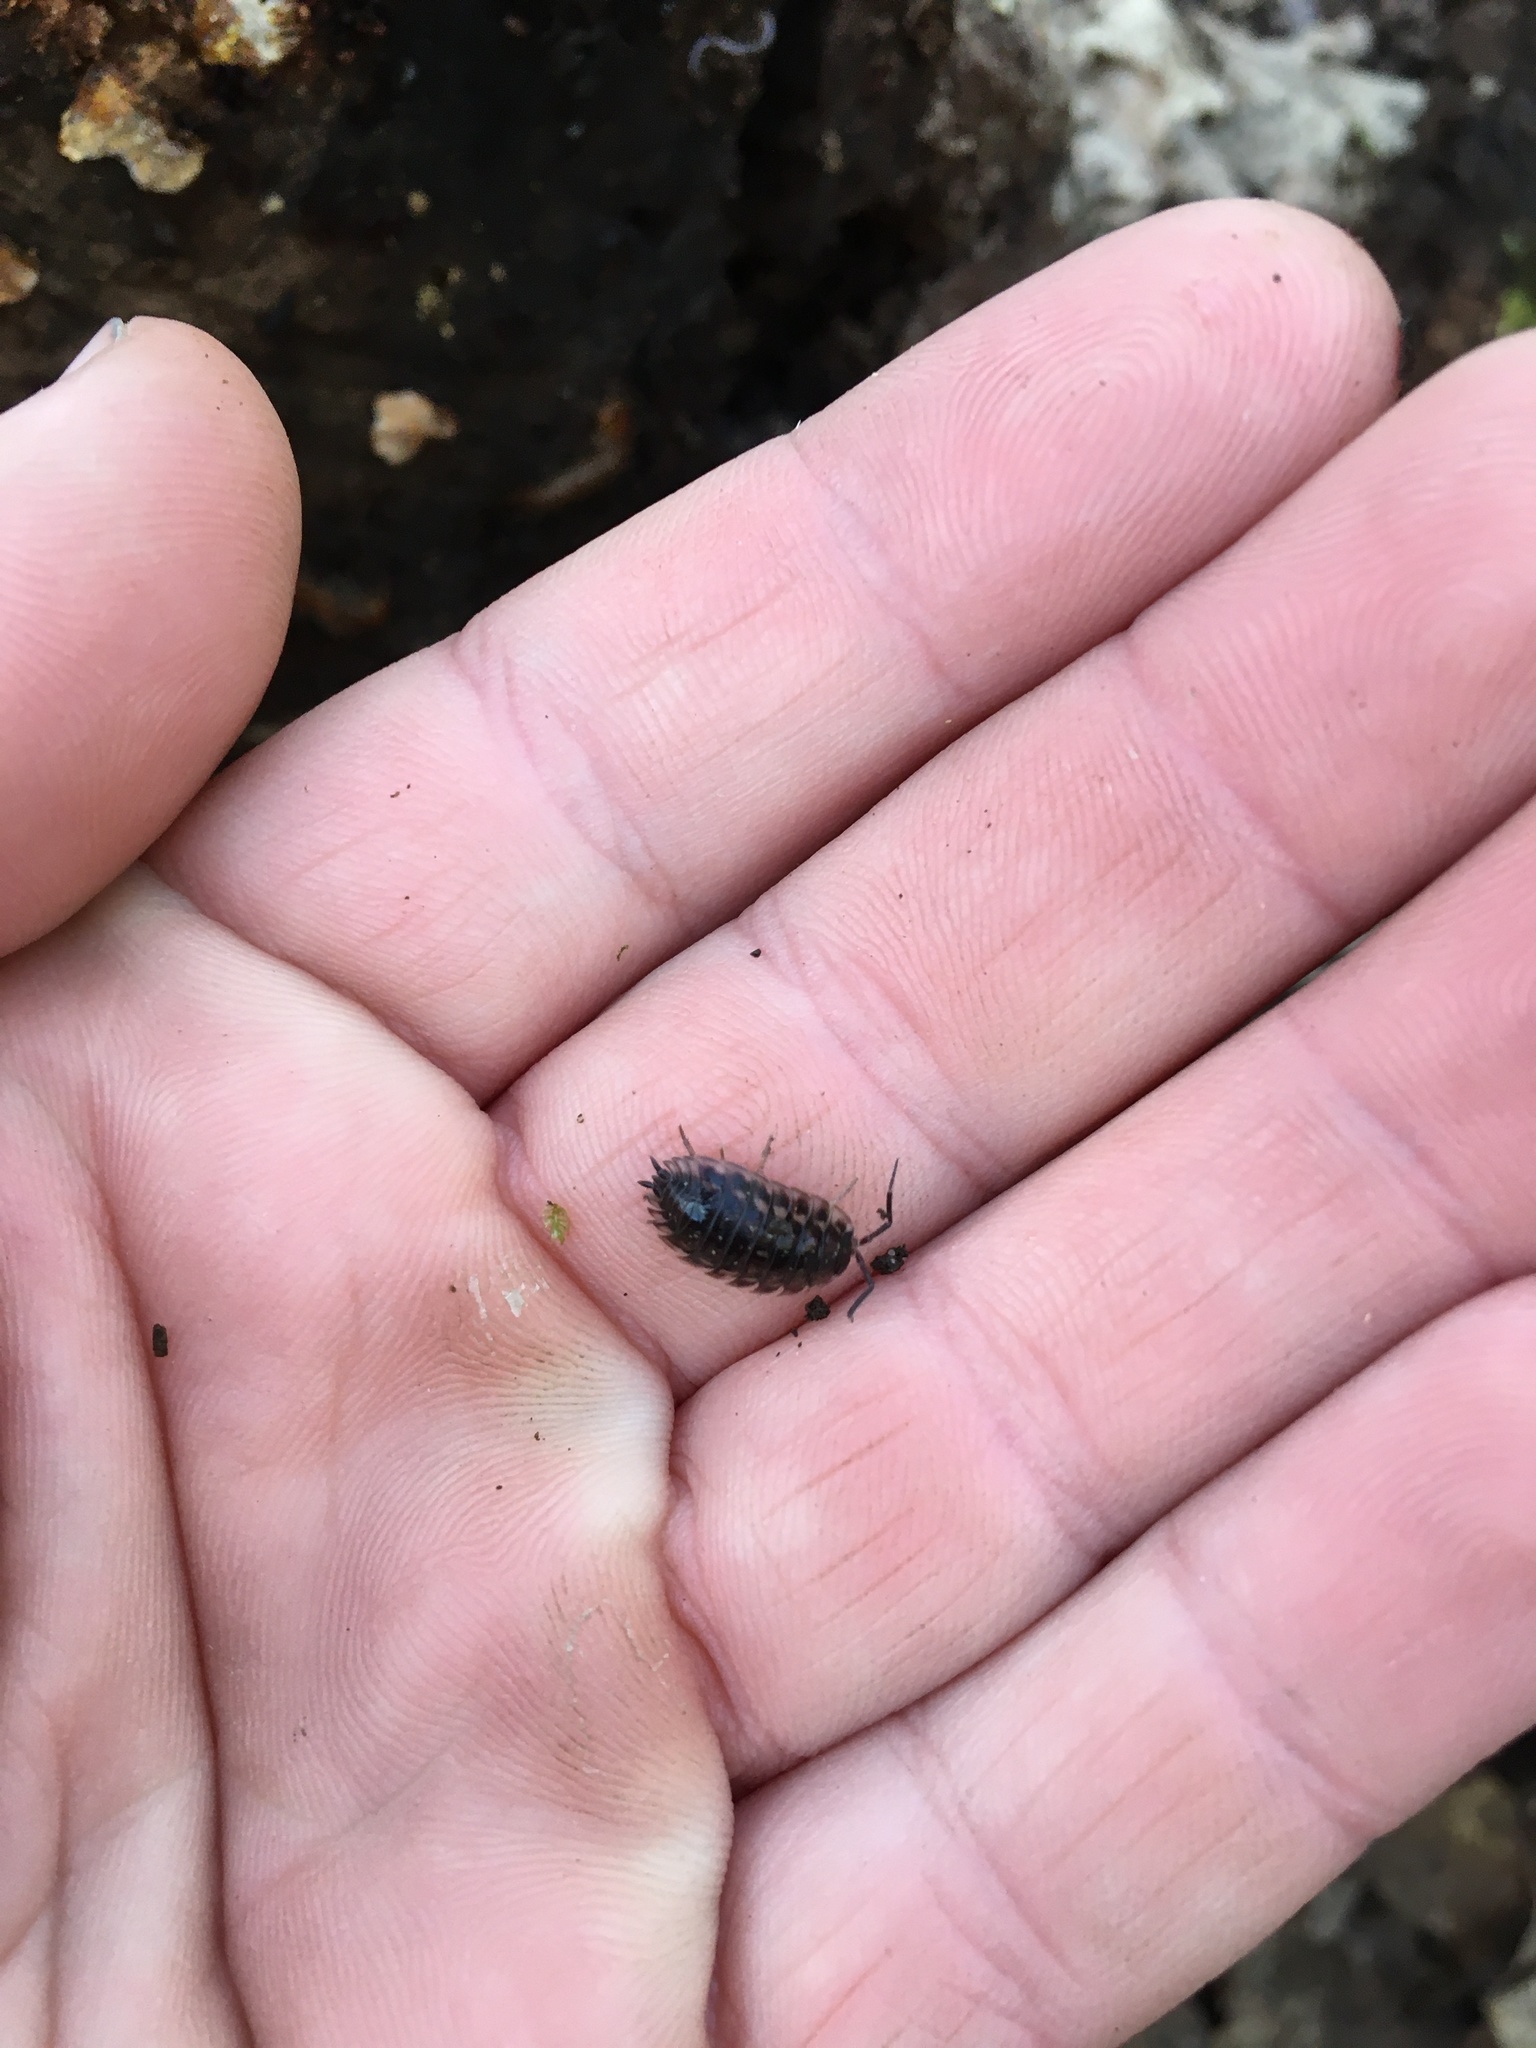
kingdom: Animalia
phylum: Arthropoda
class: Malacostraca
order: Isopoda
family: Oniscidae
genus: Oniscus
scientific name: Oniscus asellus
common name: Common shiny woodlouse
